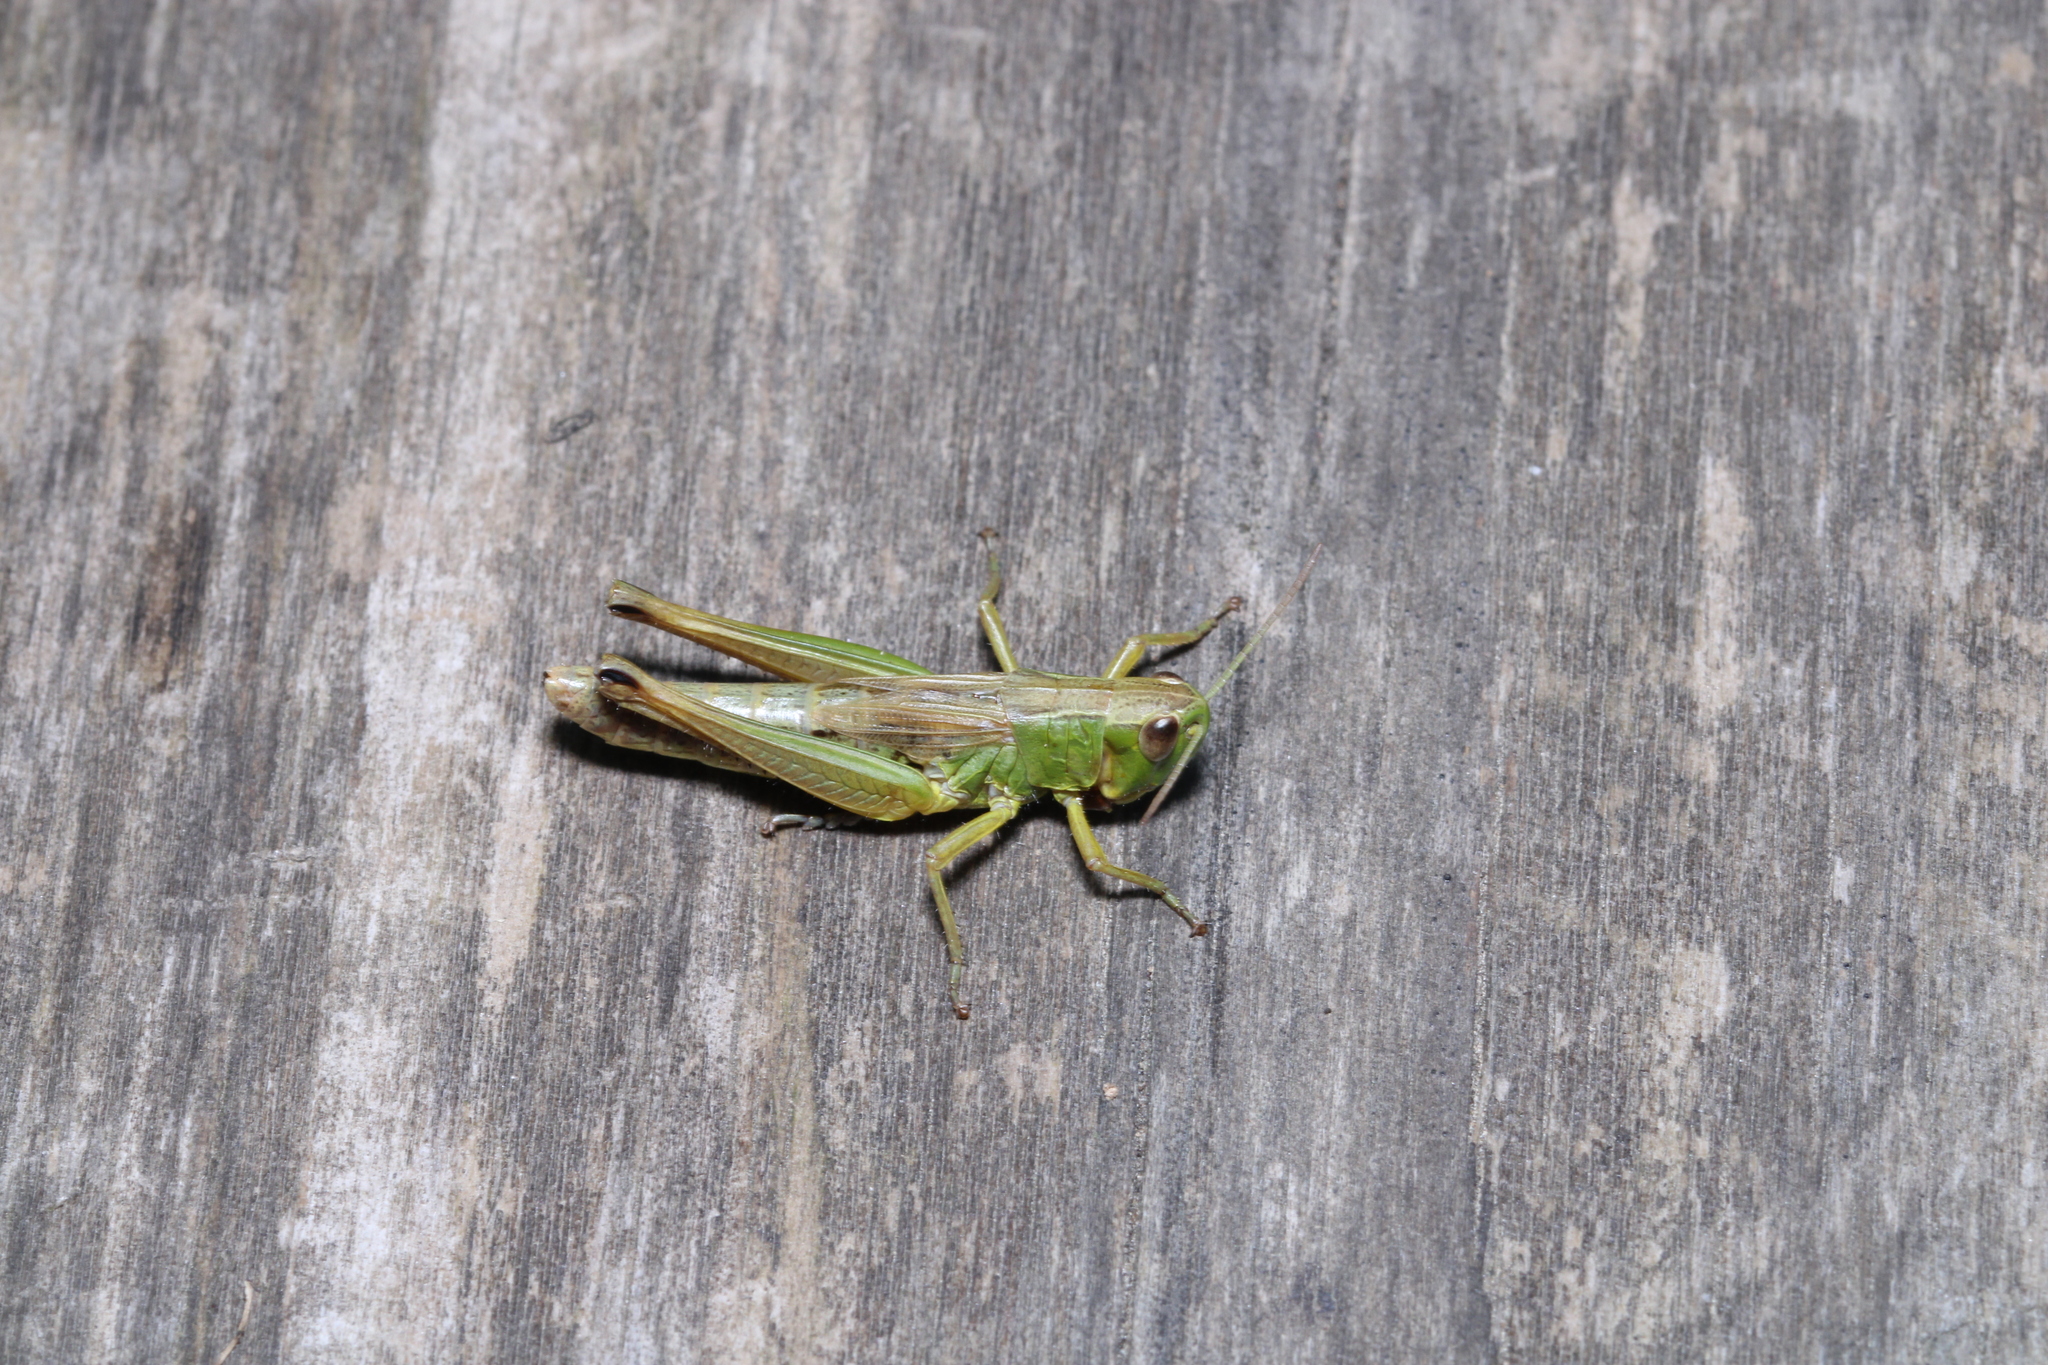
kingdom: Animalia
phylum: Arthropoda
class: Insecta
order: Orthoptera
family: Acrididae
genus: Pseudochorthippus
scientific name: Pseudochorthippus parallelus
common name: Meadow grasshopper
